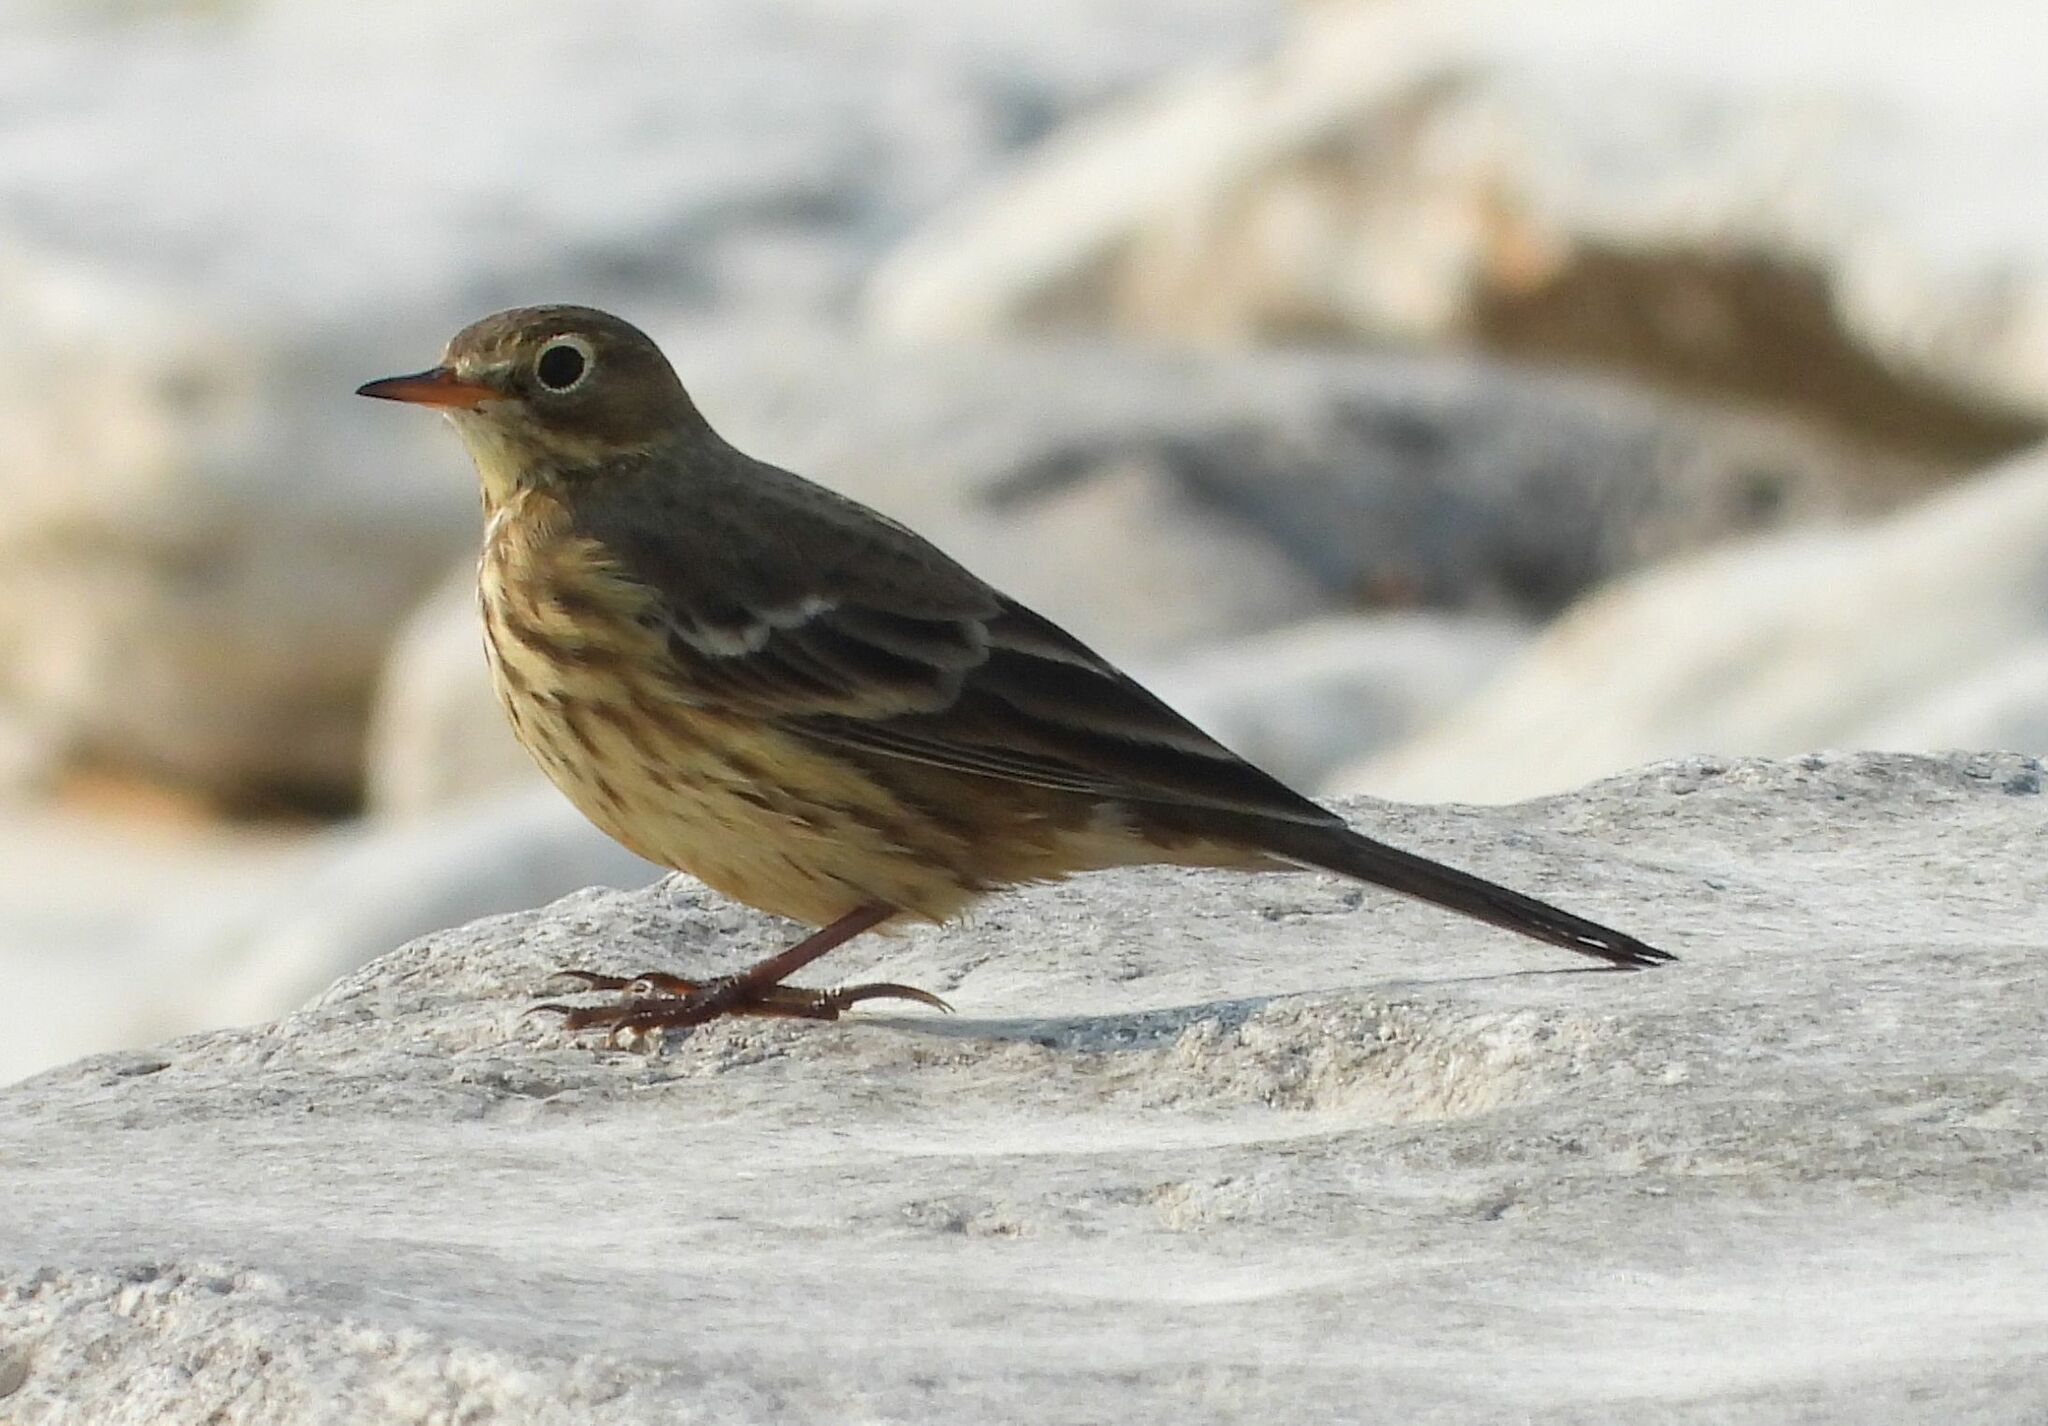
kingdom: Animalia
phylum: Chordata
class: Aves
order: Passeriformes
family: Motacillidae
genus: Anthus
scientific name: Anthus rubescens
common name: Buff-bellied pipit
